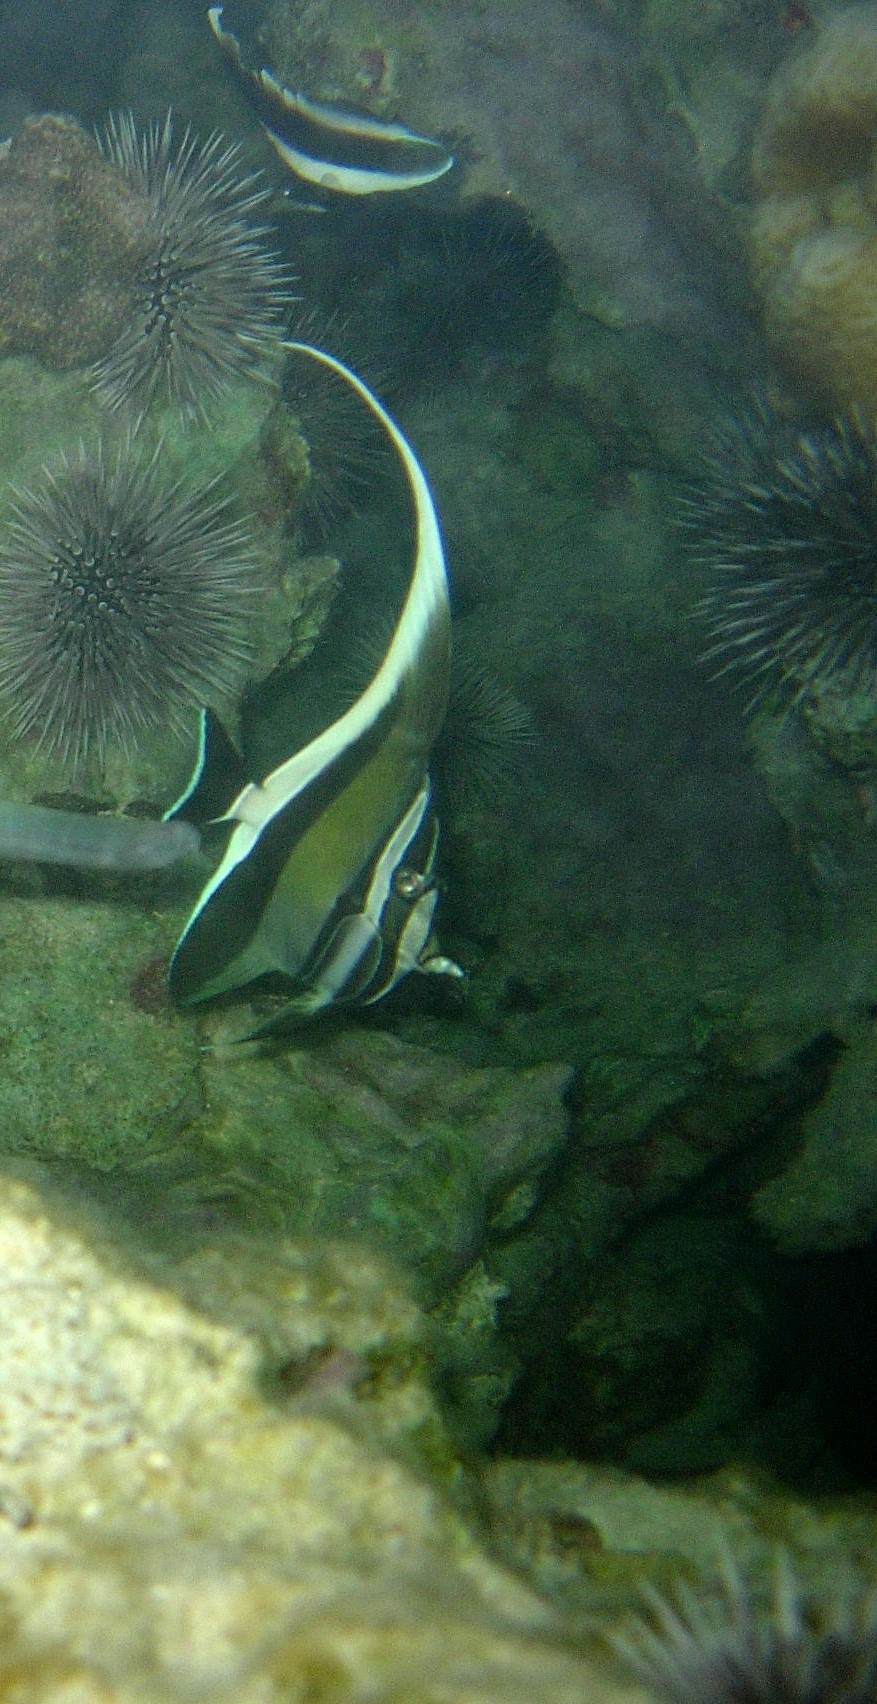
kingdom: Animalia
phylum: Chordata
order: Perciformes
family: Zanclidae
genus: Zanclus
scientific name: Zanclus cornutus
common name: Moorish idol
